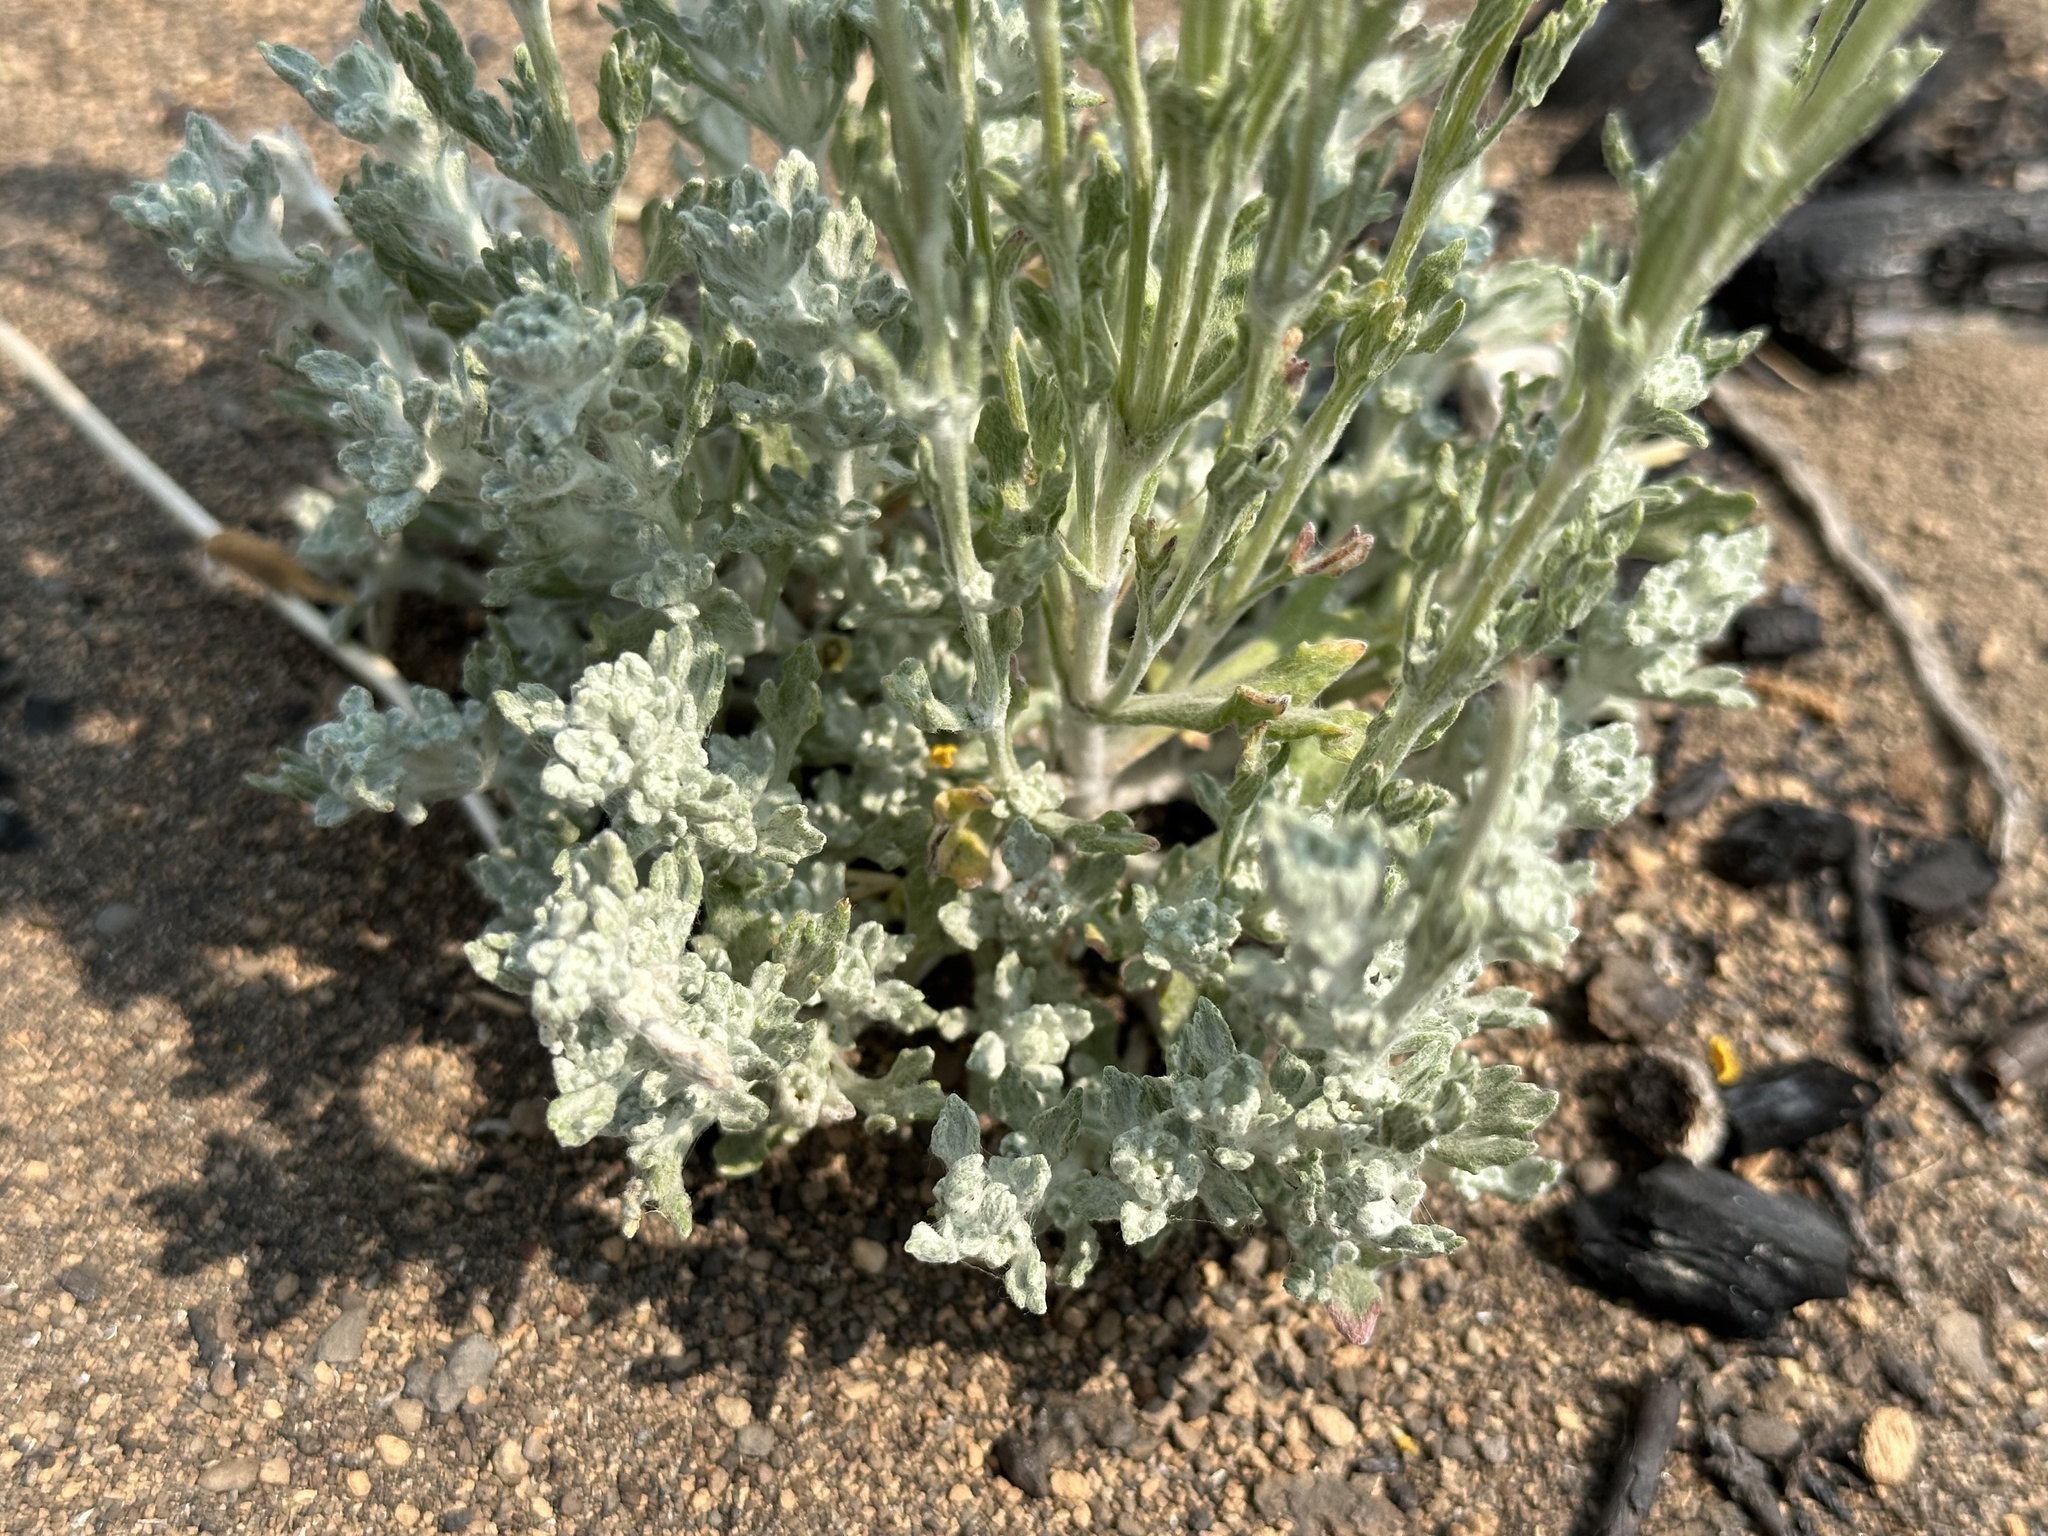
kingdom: Plantae
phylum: Tracheophyta
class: Magnoliopsida
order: Asterales
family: Asteraceae
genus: Eriophyllum
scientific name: Eriophyllum lanatum
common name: Common woolly-sunflower
